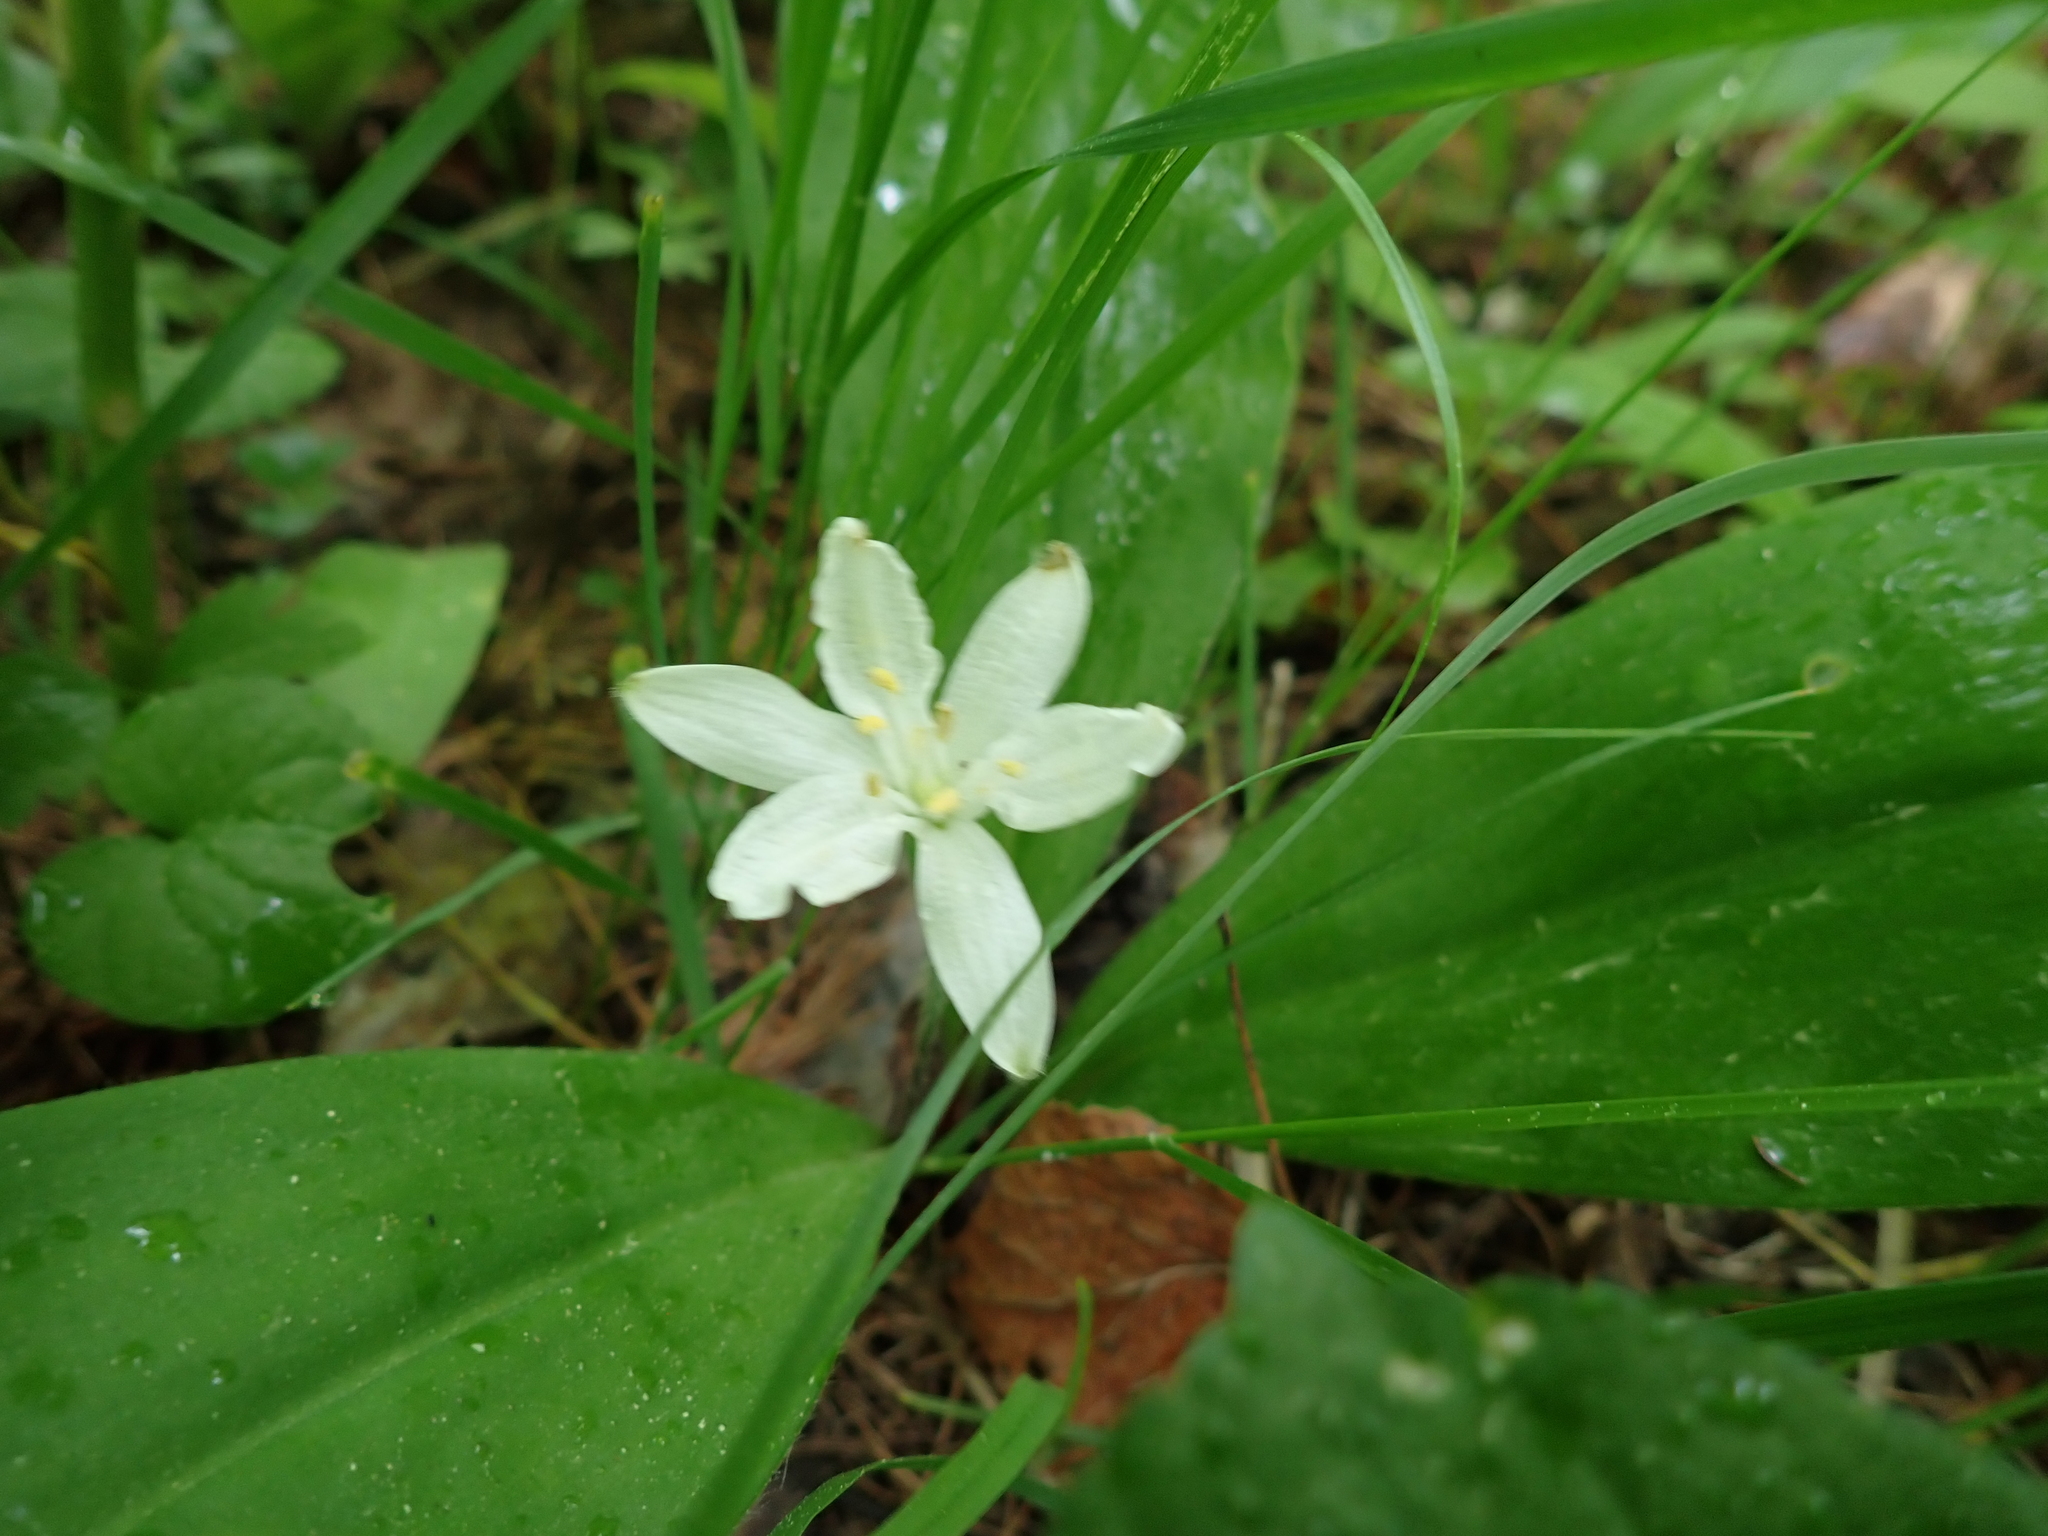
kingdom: Plantae
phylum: Tracheophyta
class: Liliopsida
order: Liliales
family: Liliaceae
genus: Clintonia
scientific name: Clintonia uniflora
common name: Queen's cup
